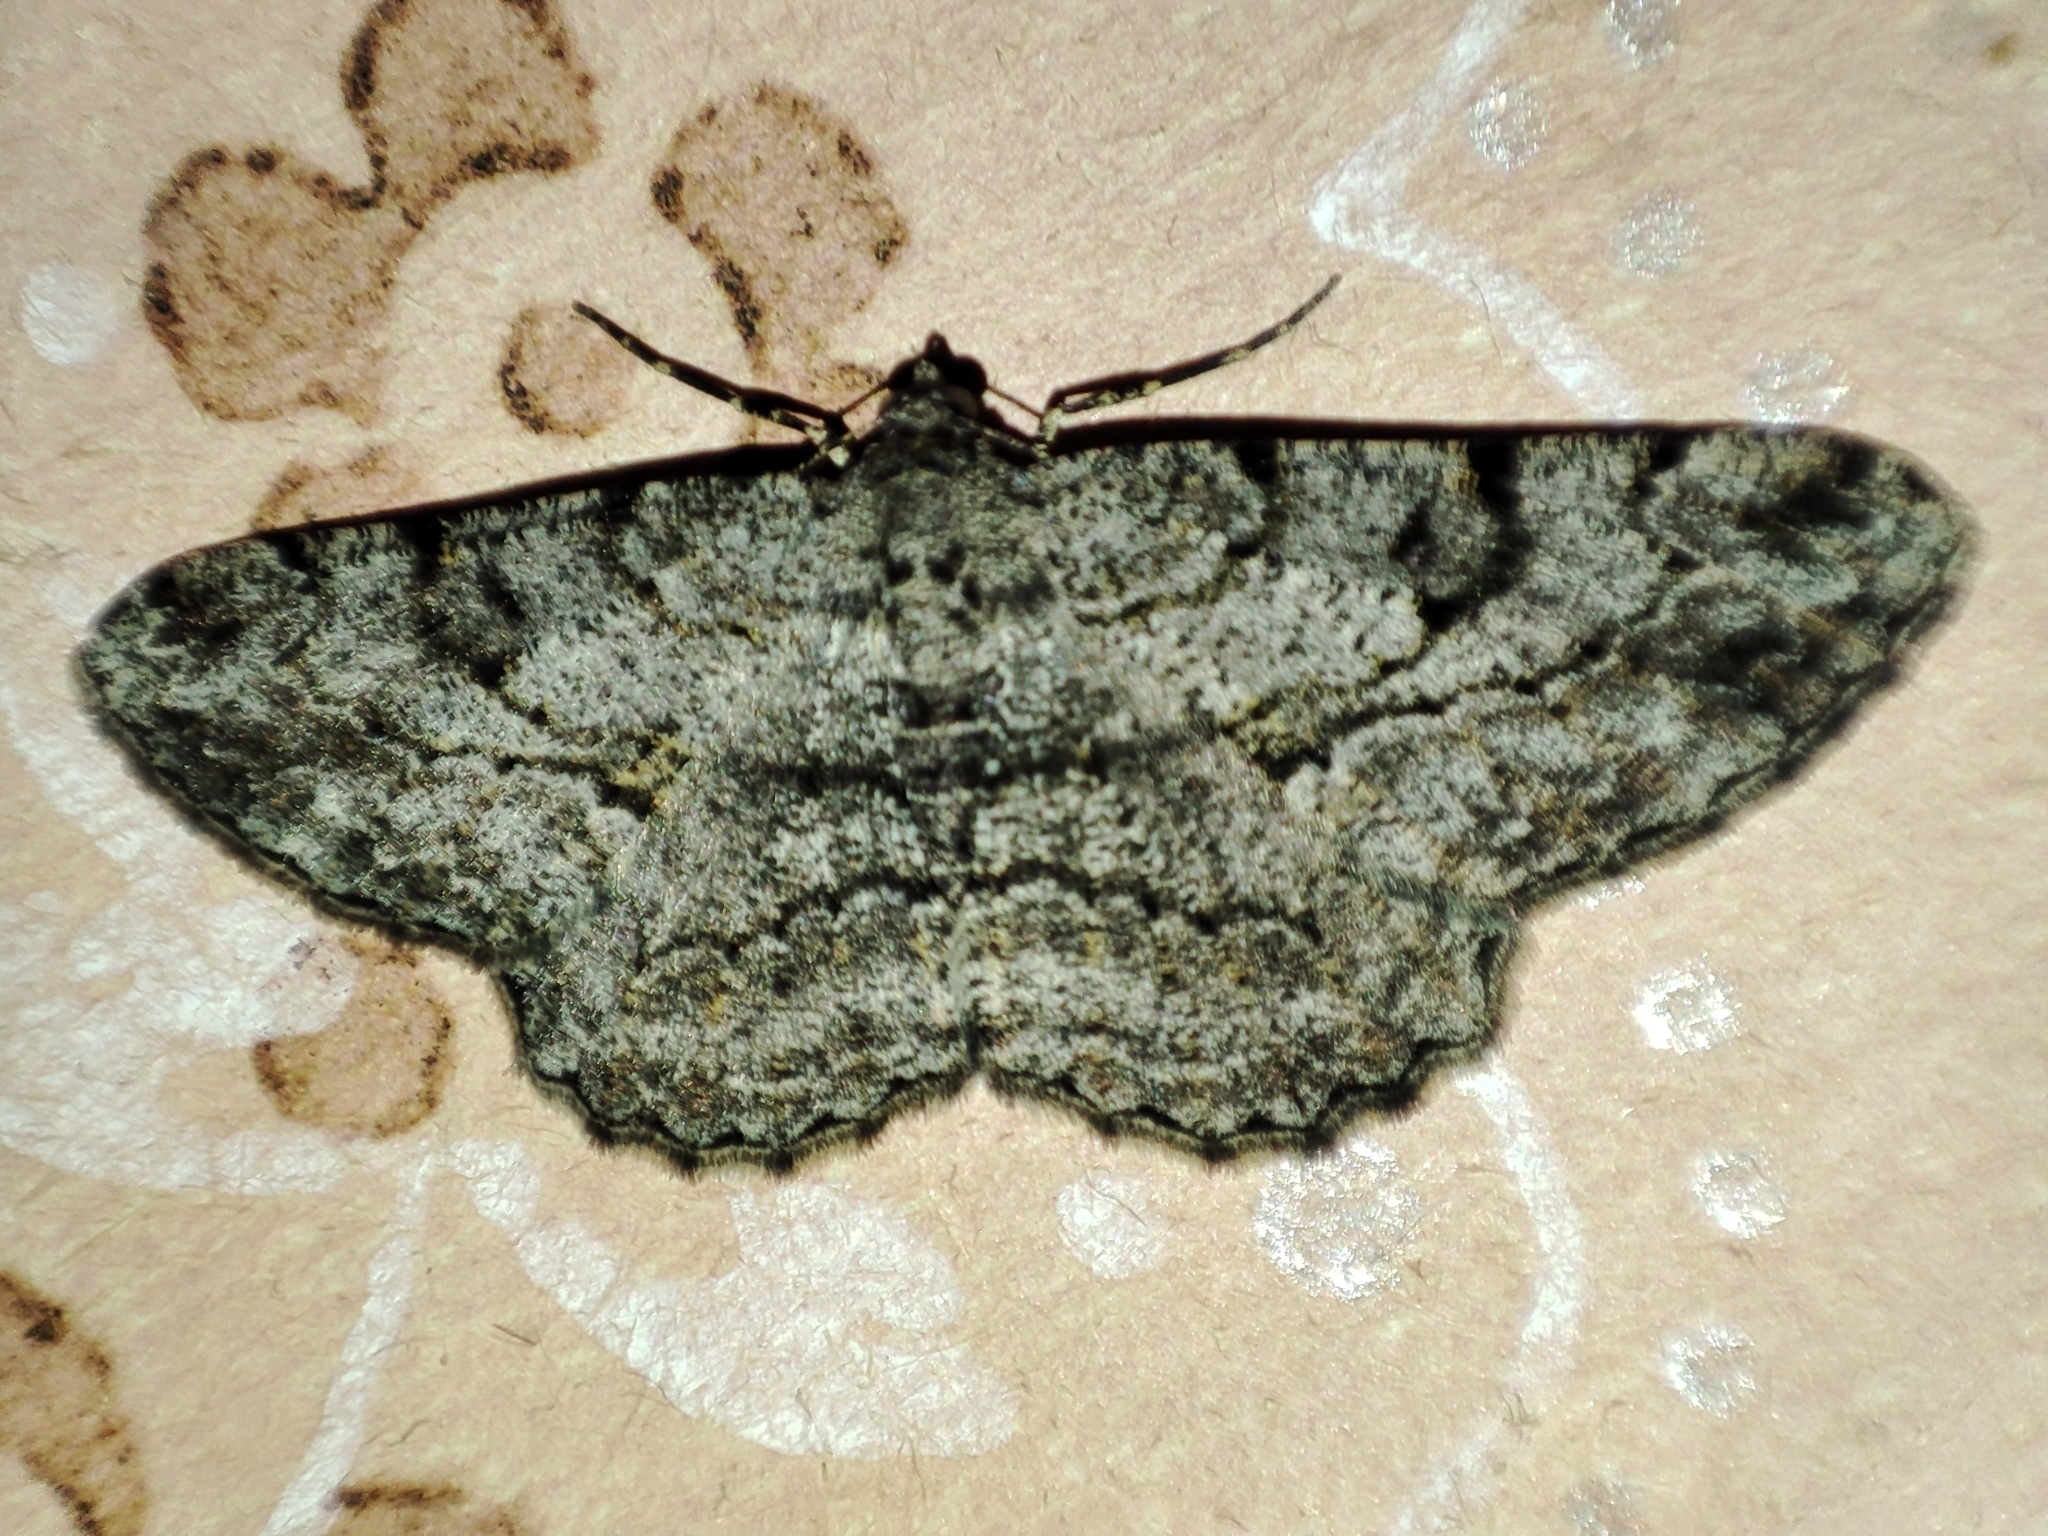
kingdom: Animalia
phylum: Arthropoda
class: Insecta
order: Lepidoptera
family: Geometridae
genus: Peribatodes
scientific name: Peribatodes rhomboidaria
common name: Willow beauty
